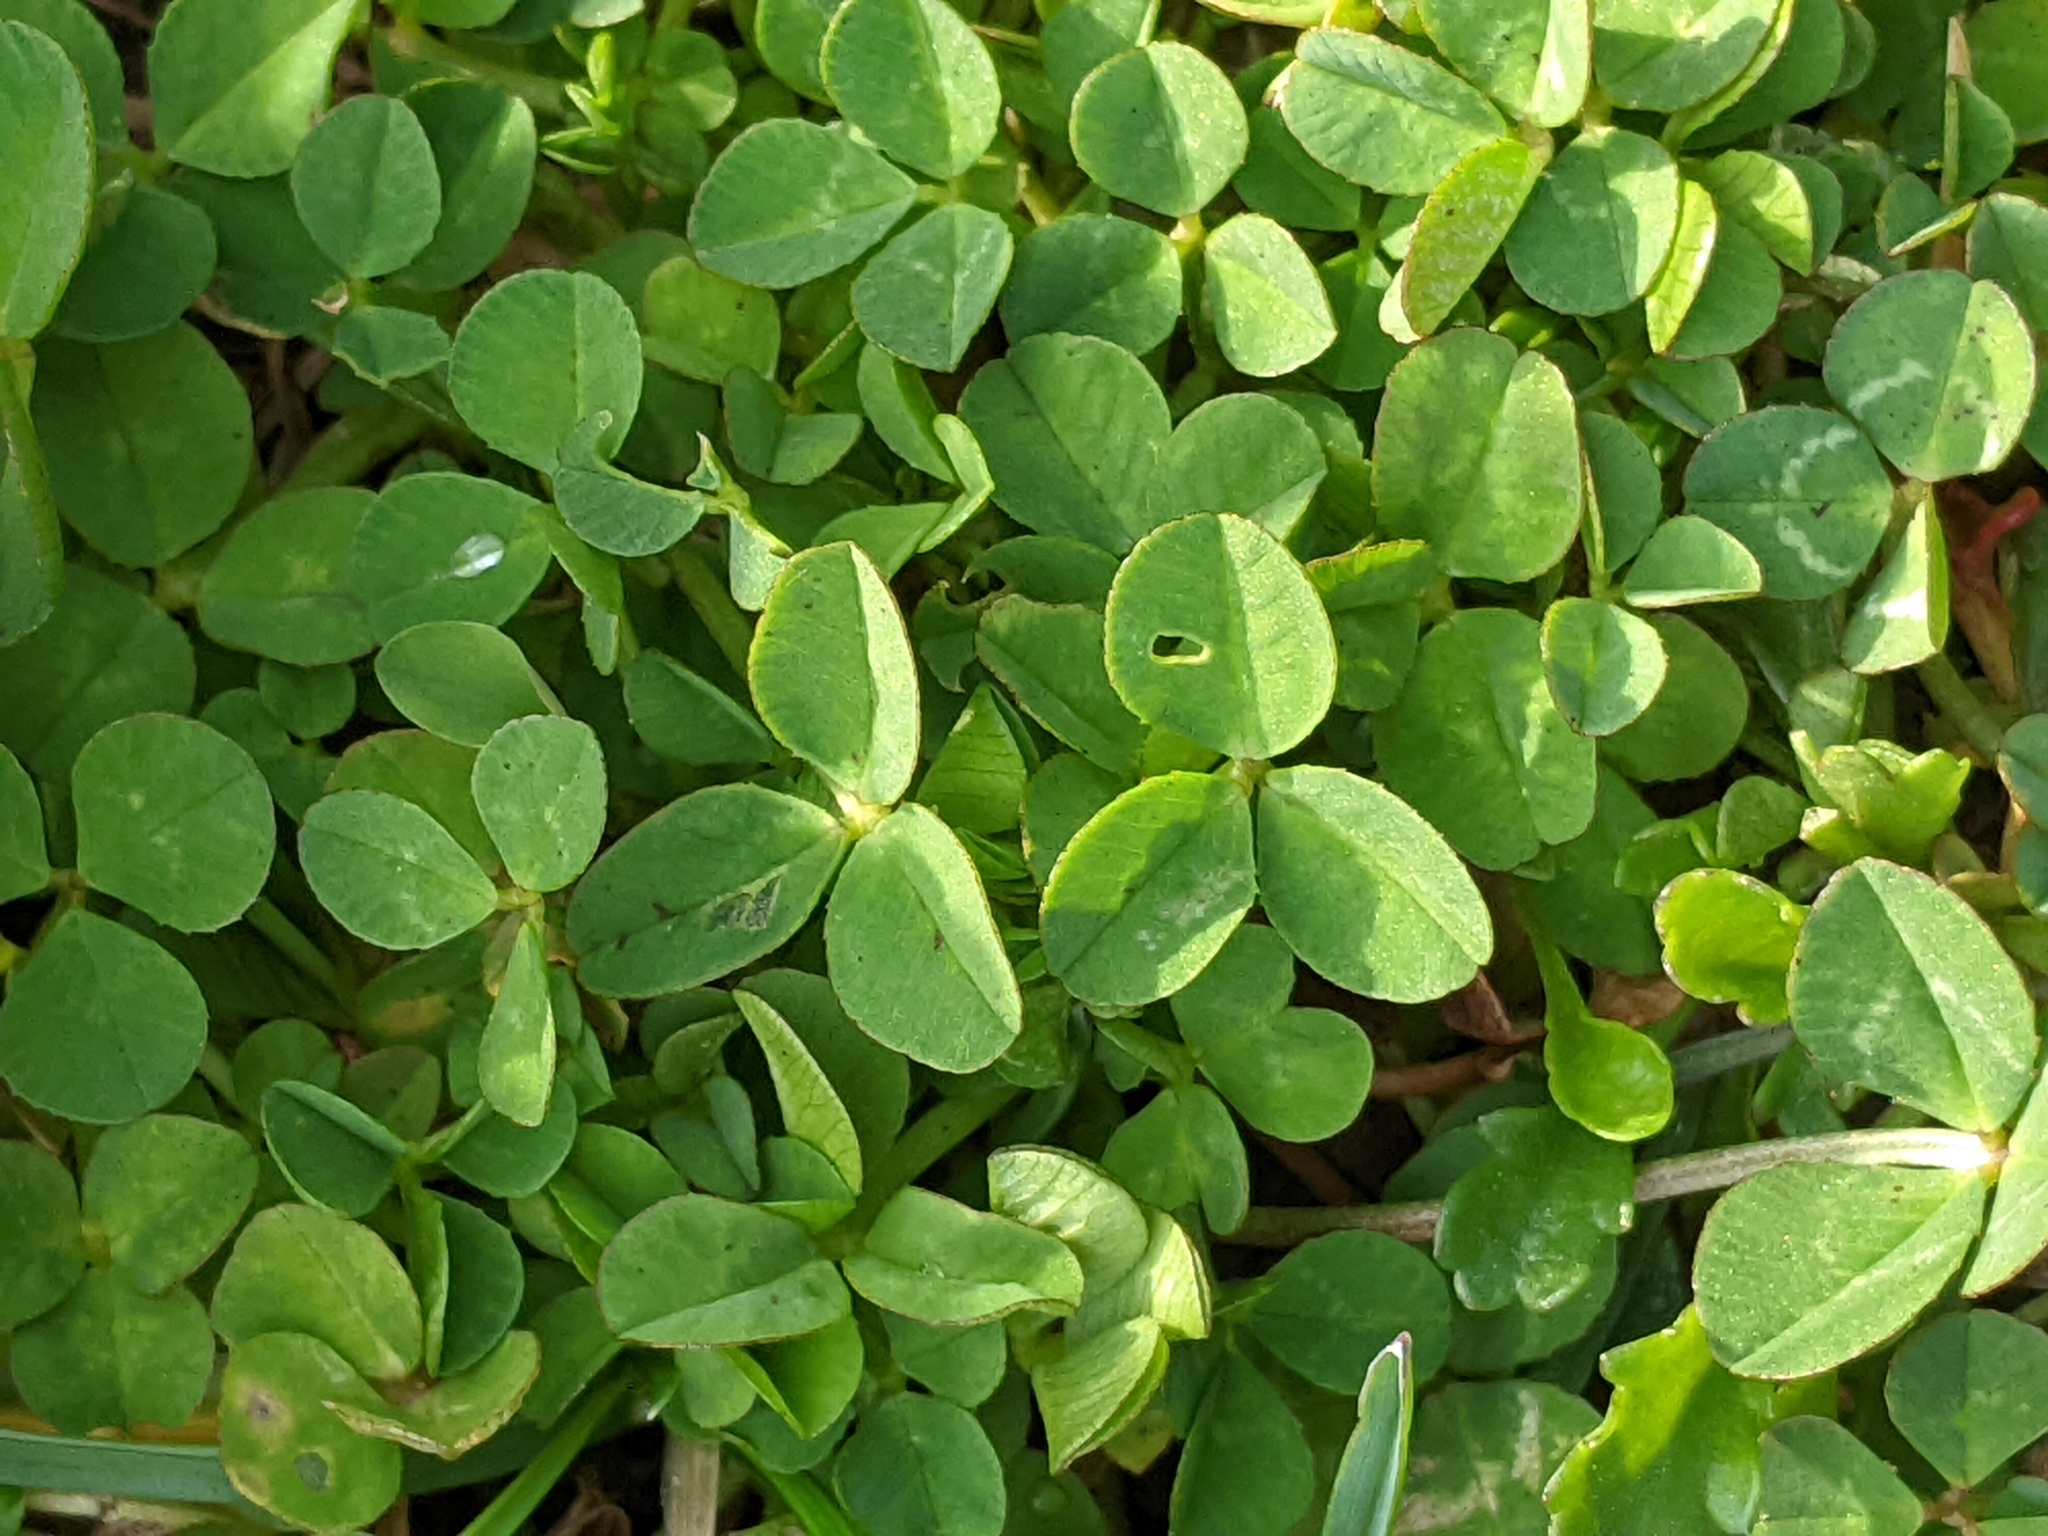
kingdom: Plantae
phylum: Tracheophyta
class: Magnoliopsida
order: Fabales
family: Fabaceae
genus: Trifolium
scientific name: Trifolium repens
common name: White clover
